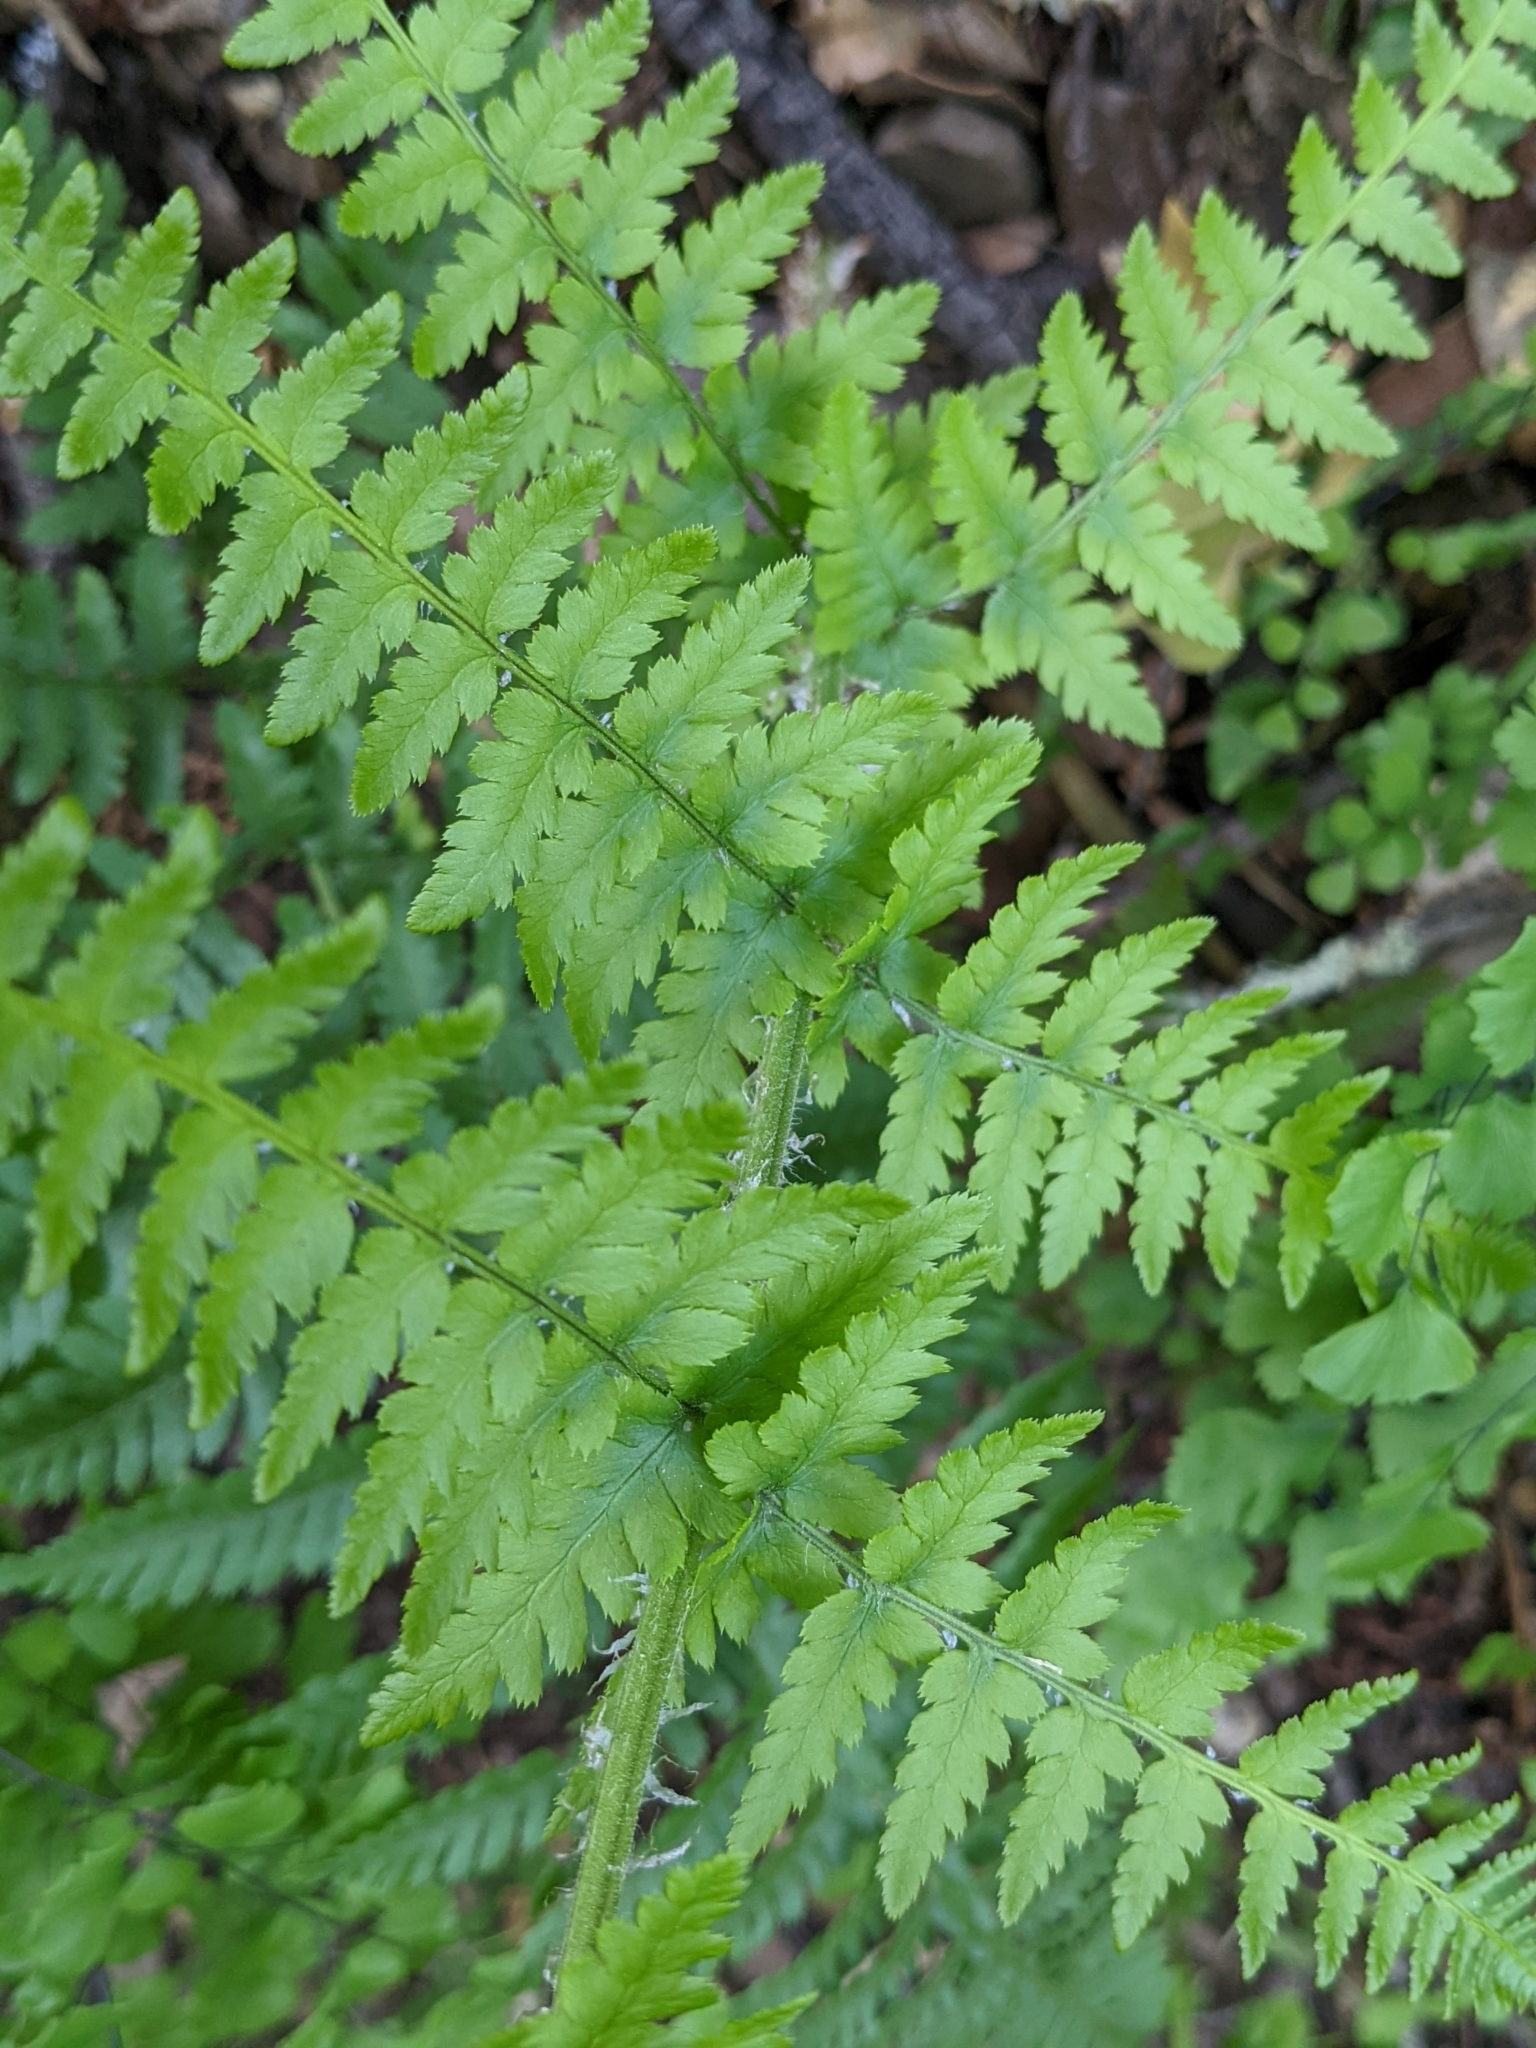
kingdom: Plantae
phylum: Tracheophyta
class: Polypodiopsida
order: Polypodiales
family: Dryopteridaceae
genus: Dryopteris
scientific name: Dryopteris arguta
